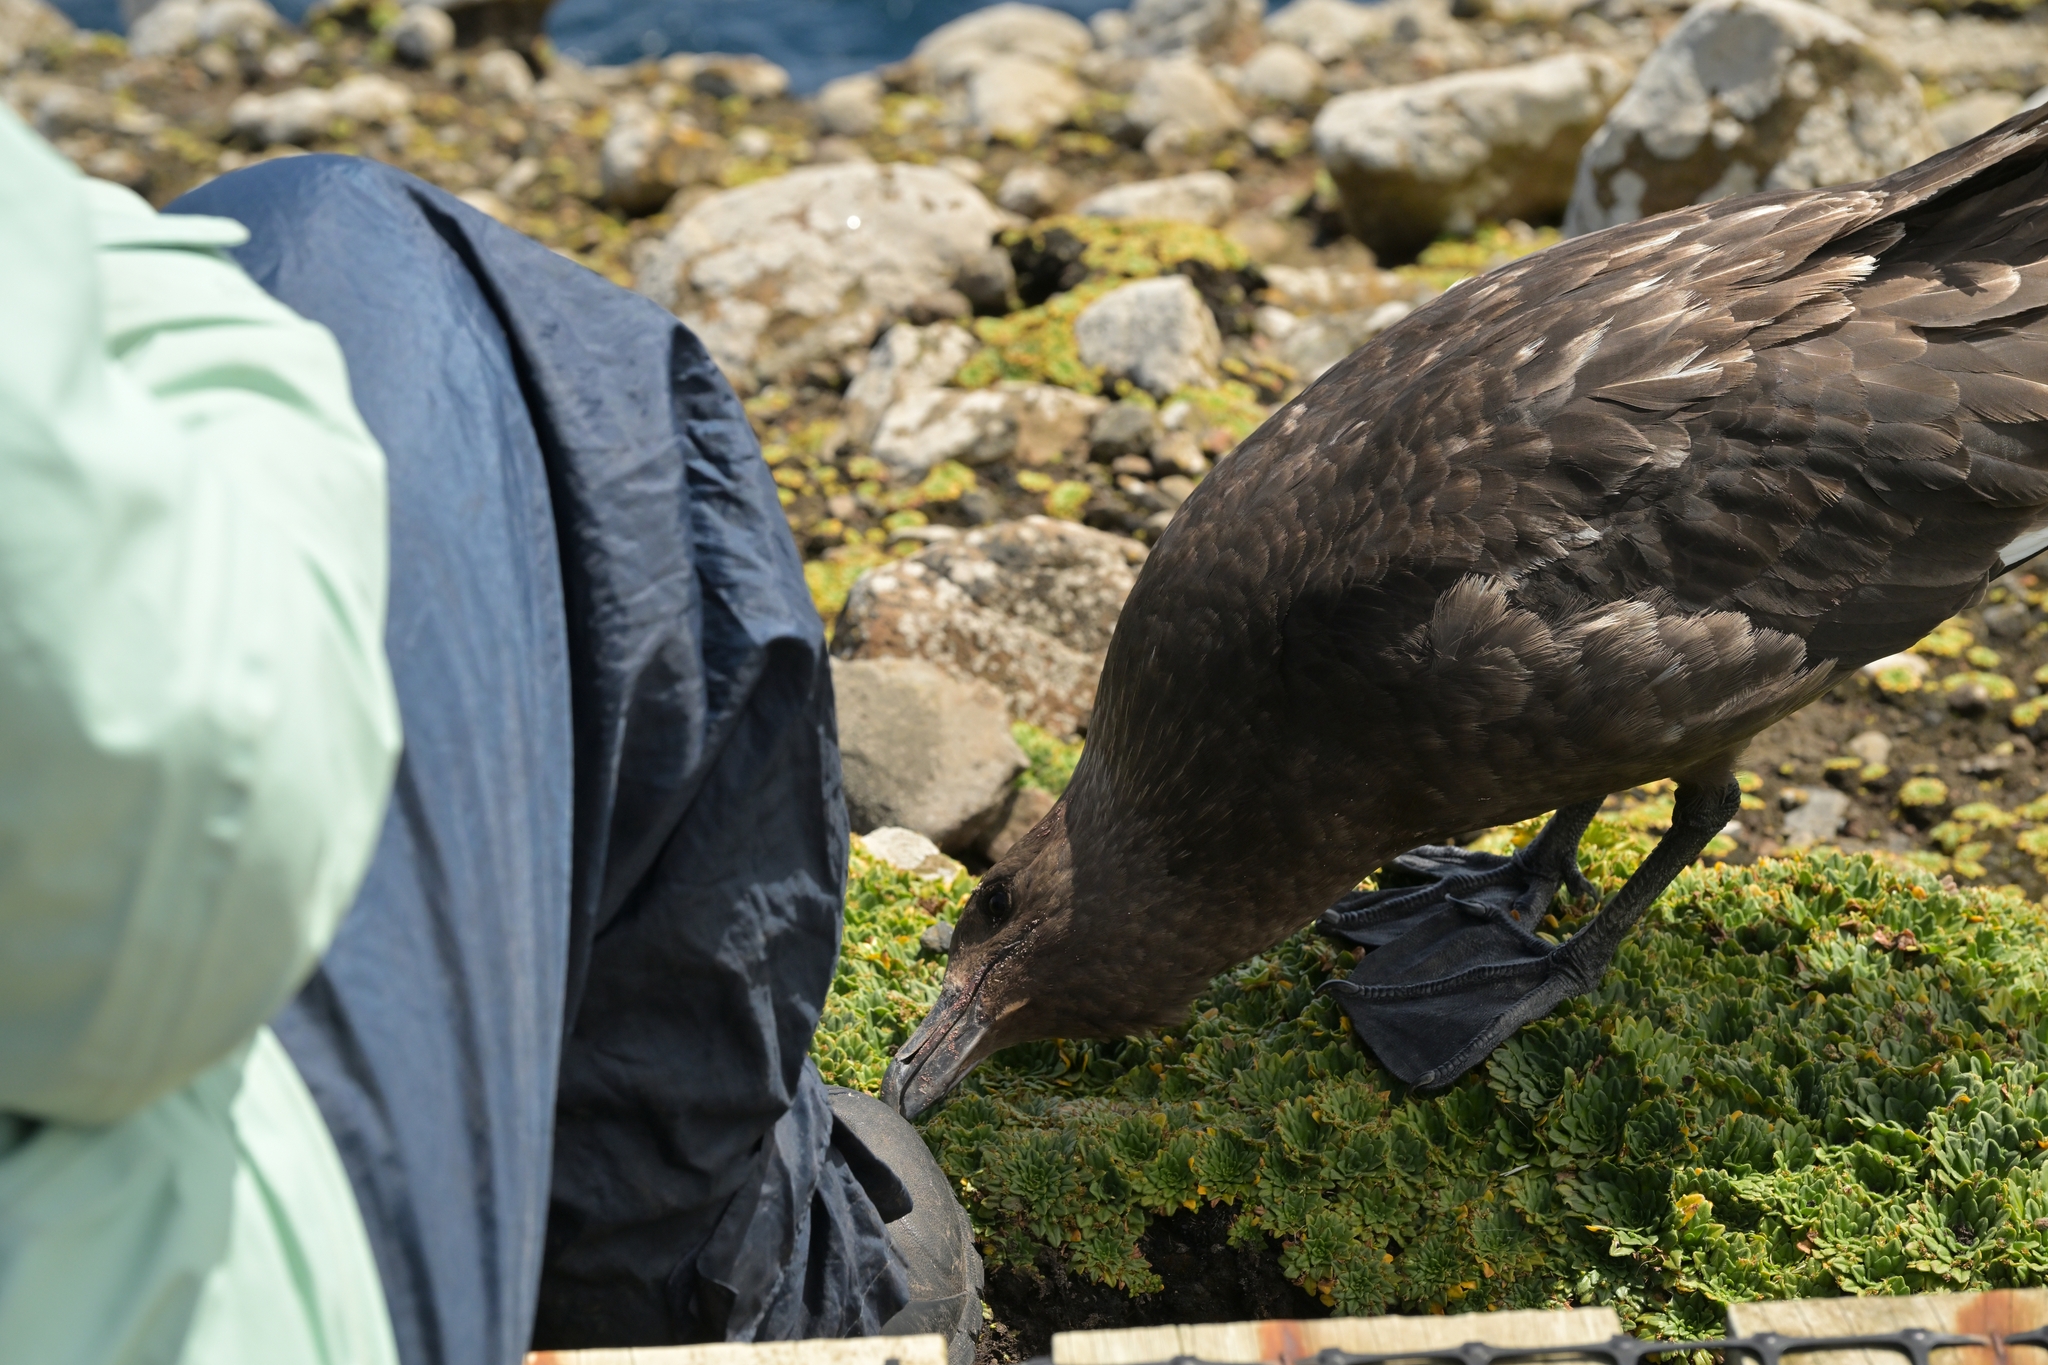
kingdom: Animalia
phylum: Chordata
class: Aves
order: Charadriiformes
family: Stercorariidae
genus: Stercorarius
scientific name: Stercorarius antarcticus
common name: Brown skua
